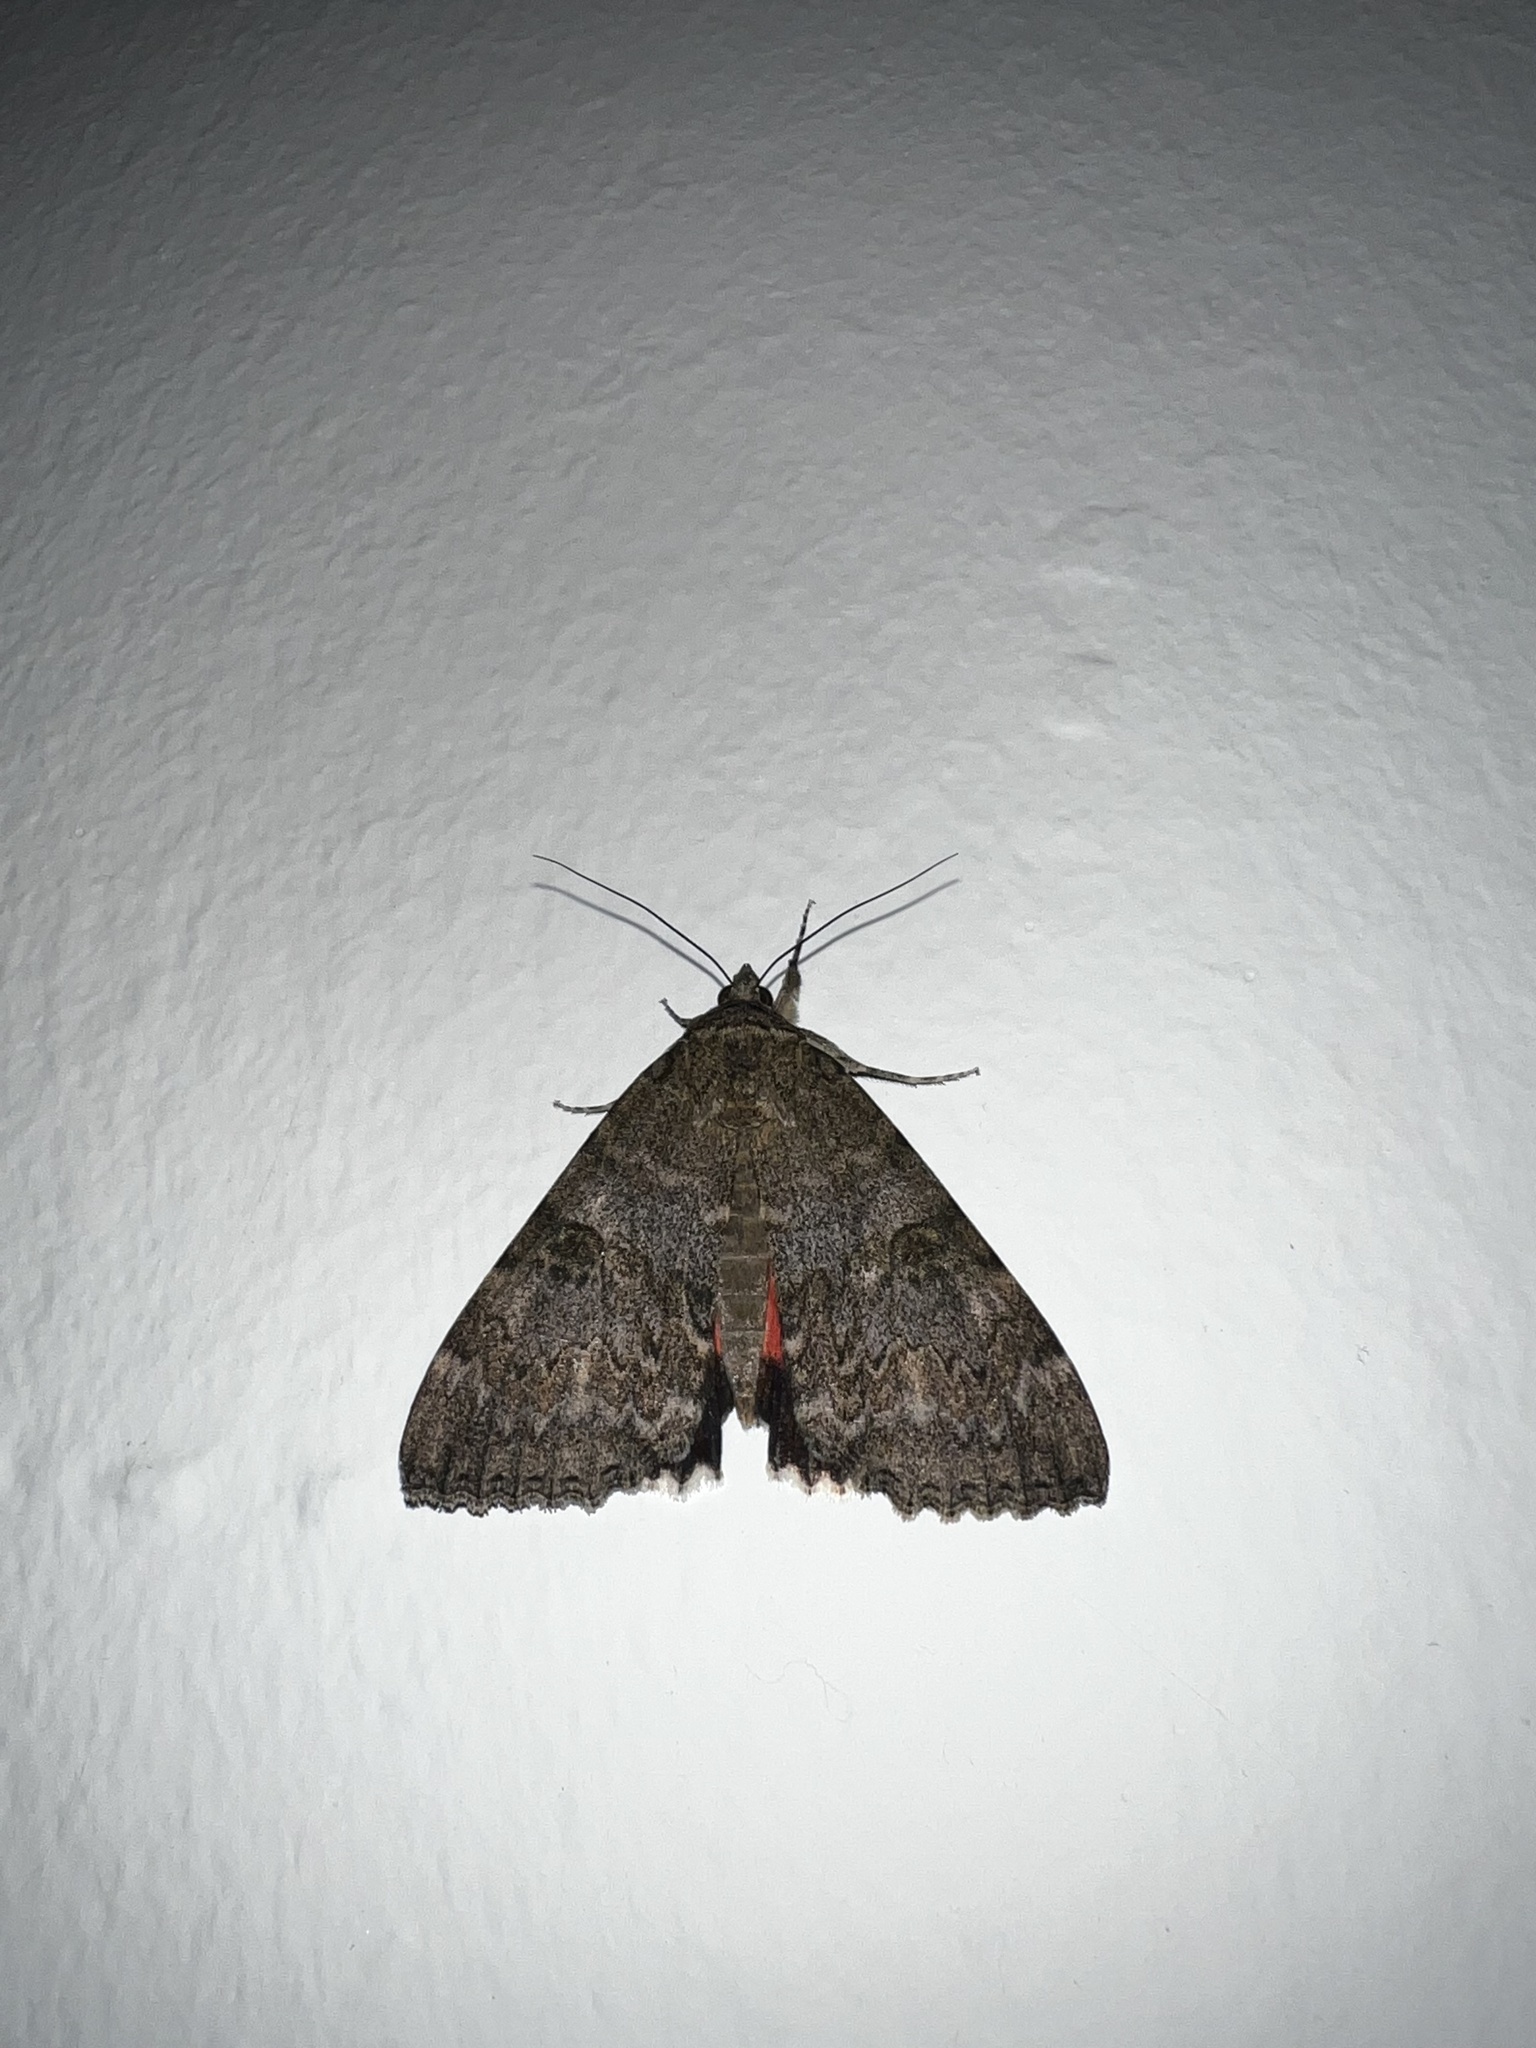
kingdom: Animalia
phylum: Arthropoda
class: Insecta
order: Lepidoptera
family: Erebidae
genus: Catocala
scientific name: Catocala nupta
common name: Red underwing
